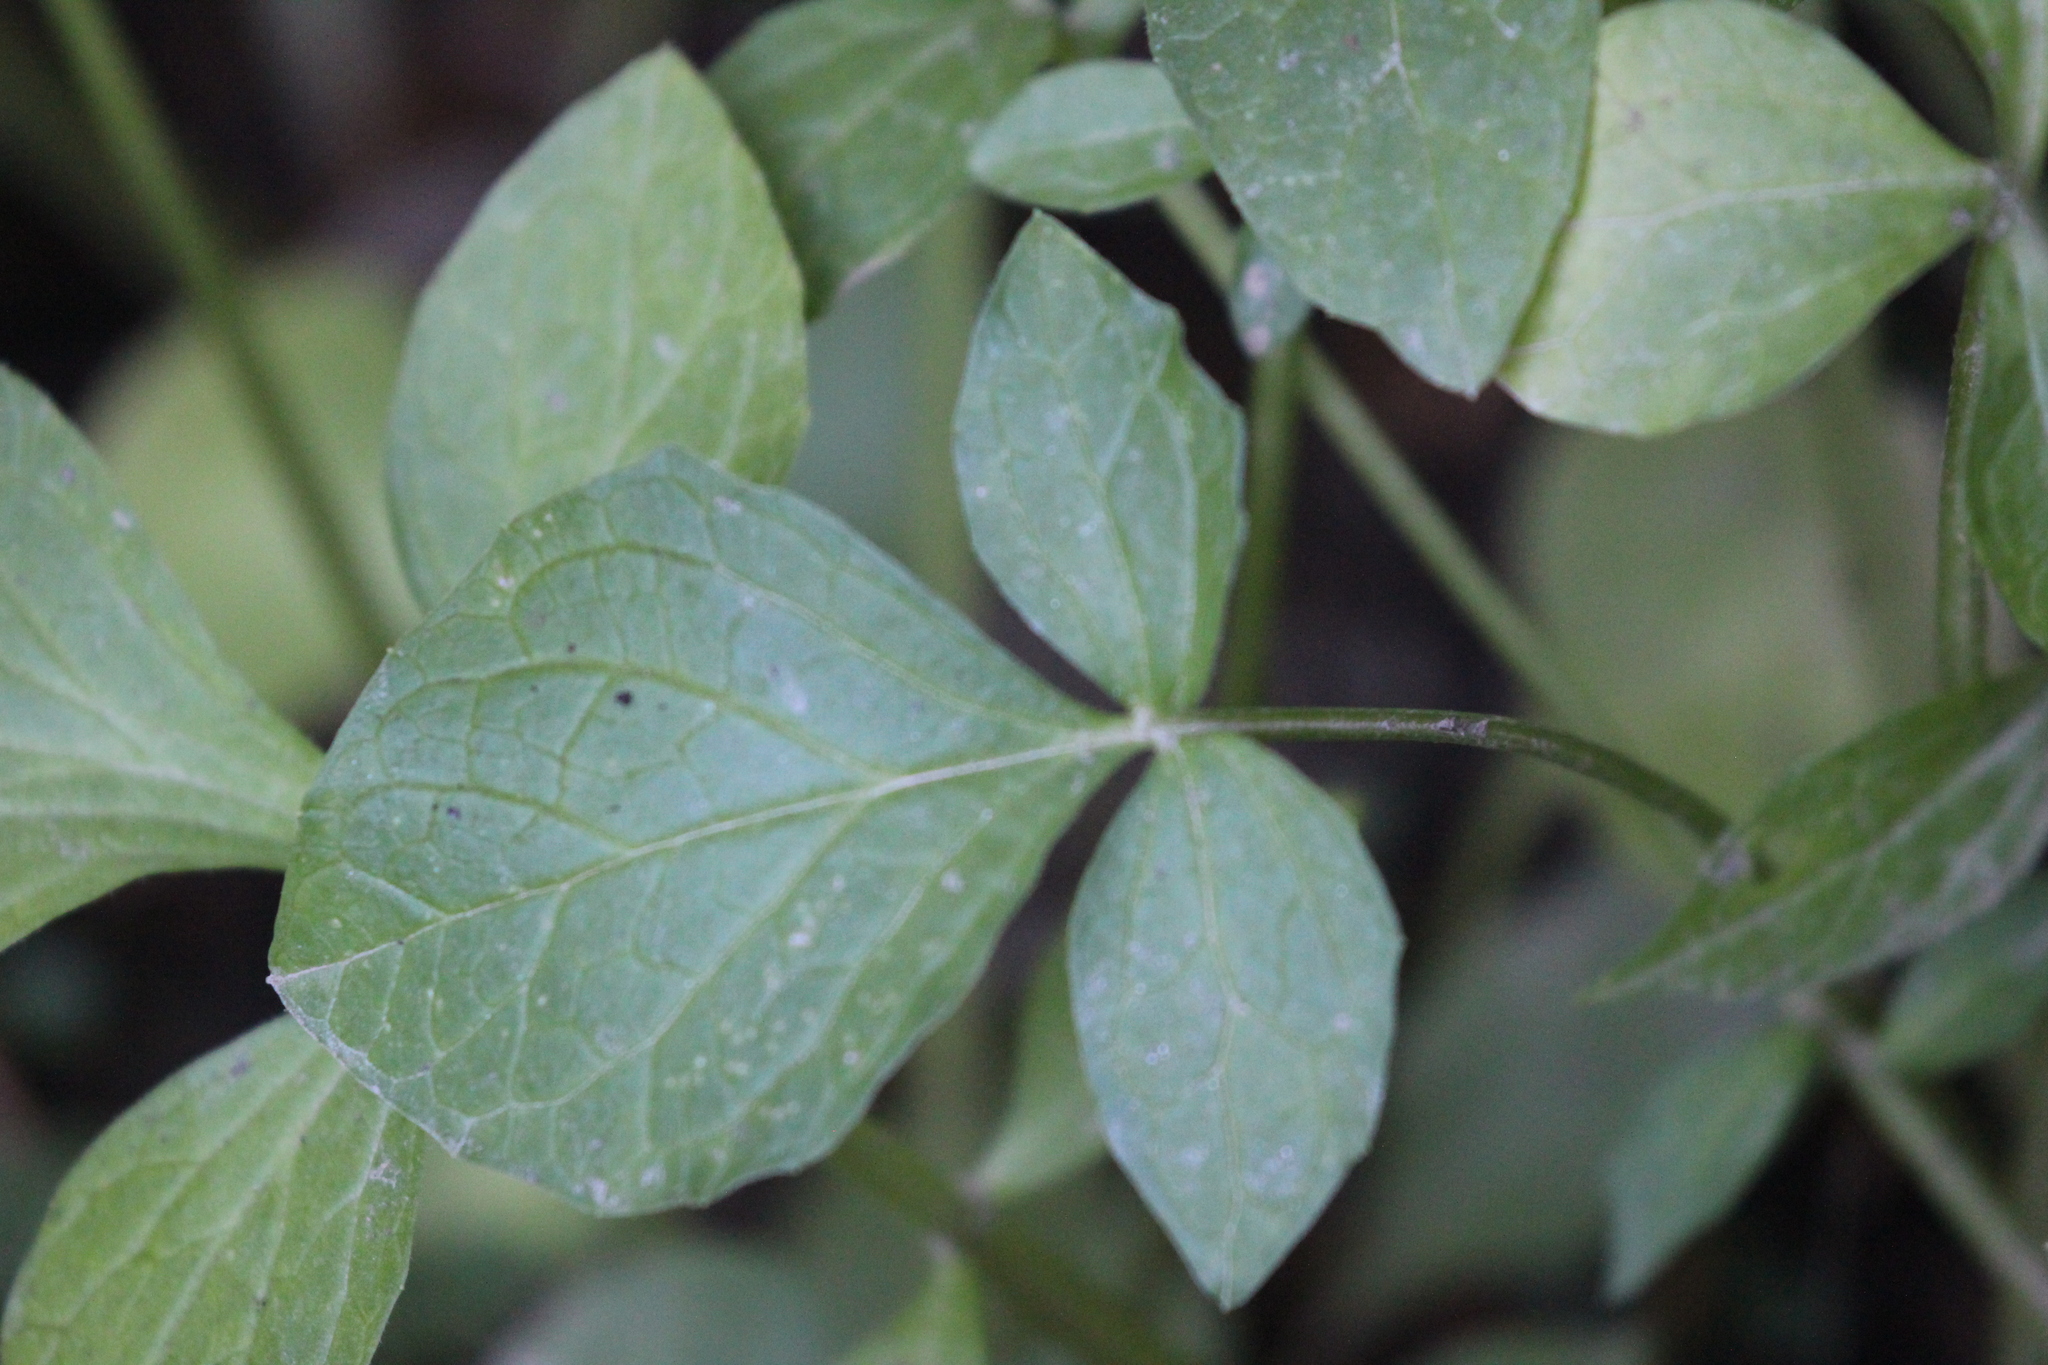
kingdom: Plantae
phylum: Tracheophyta
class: Magnoliopsida
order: Dipsacales
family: Caprifoliaceae
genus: Valeriana
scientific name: Valeriana sitchensis
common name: Pacific valerian
